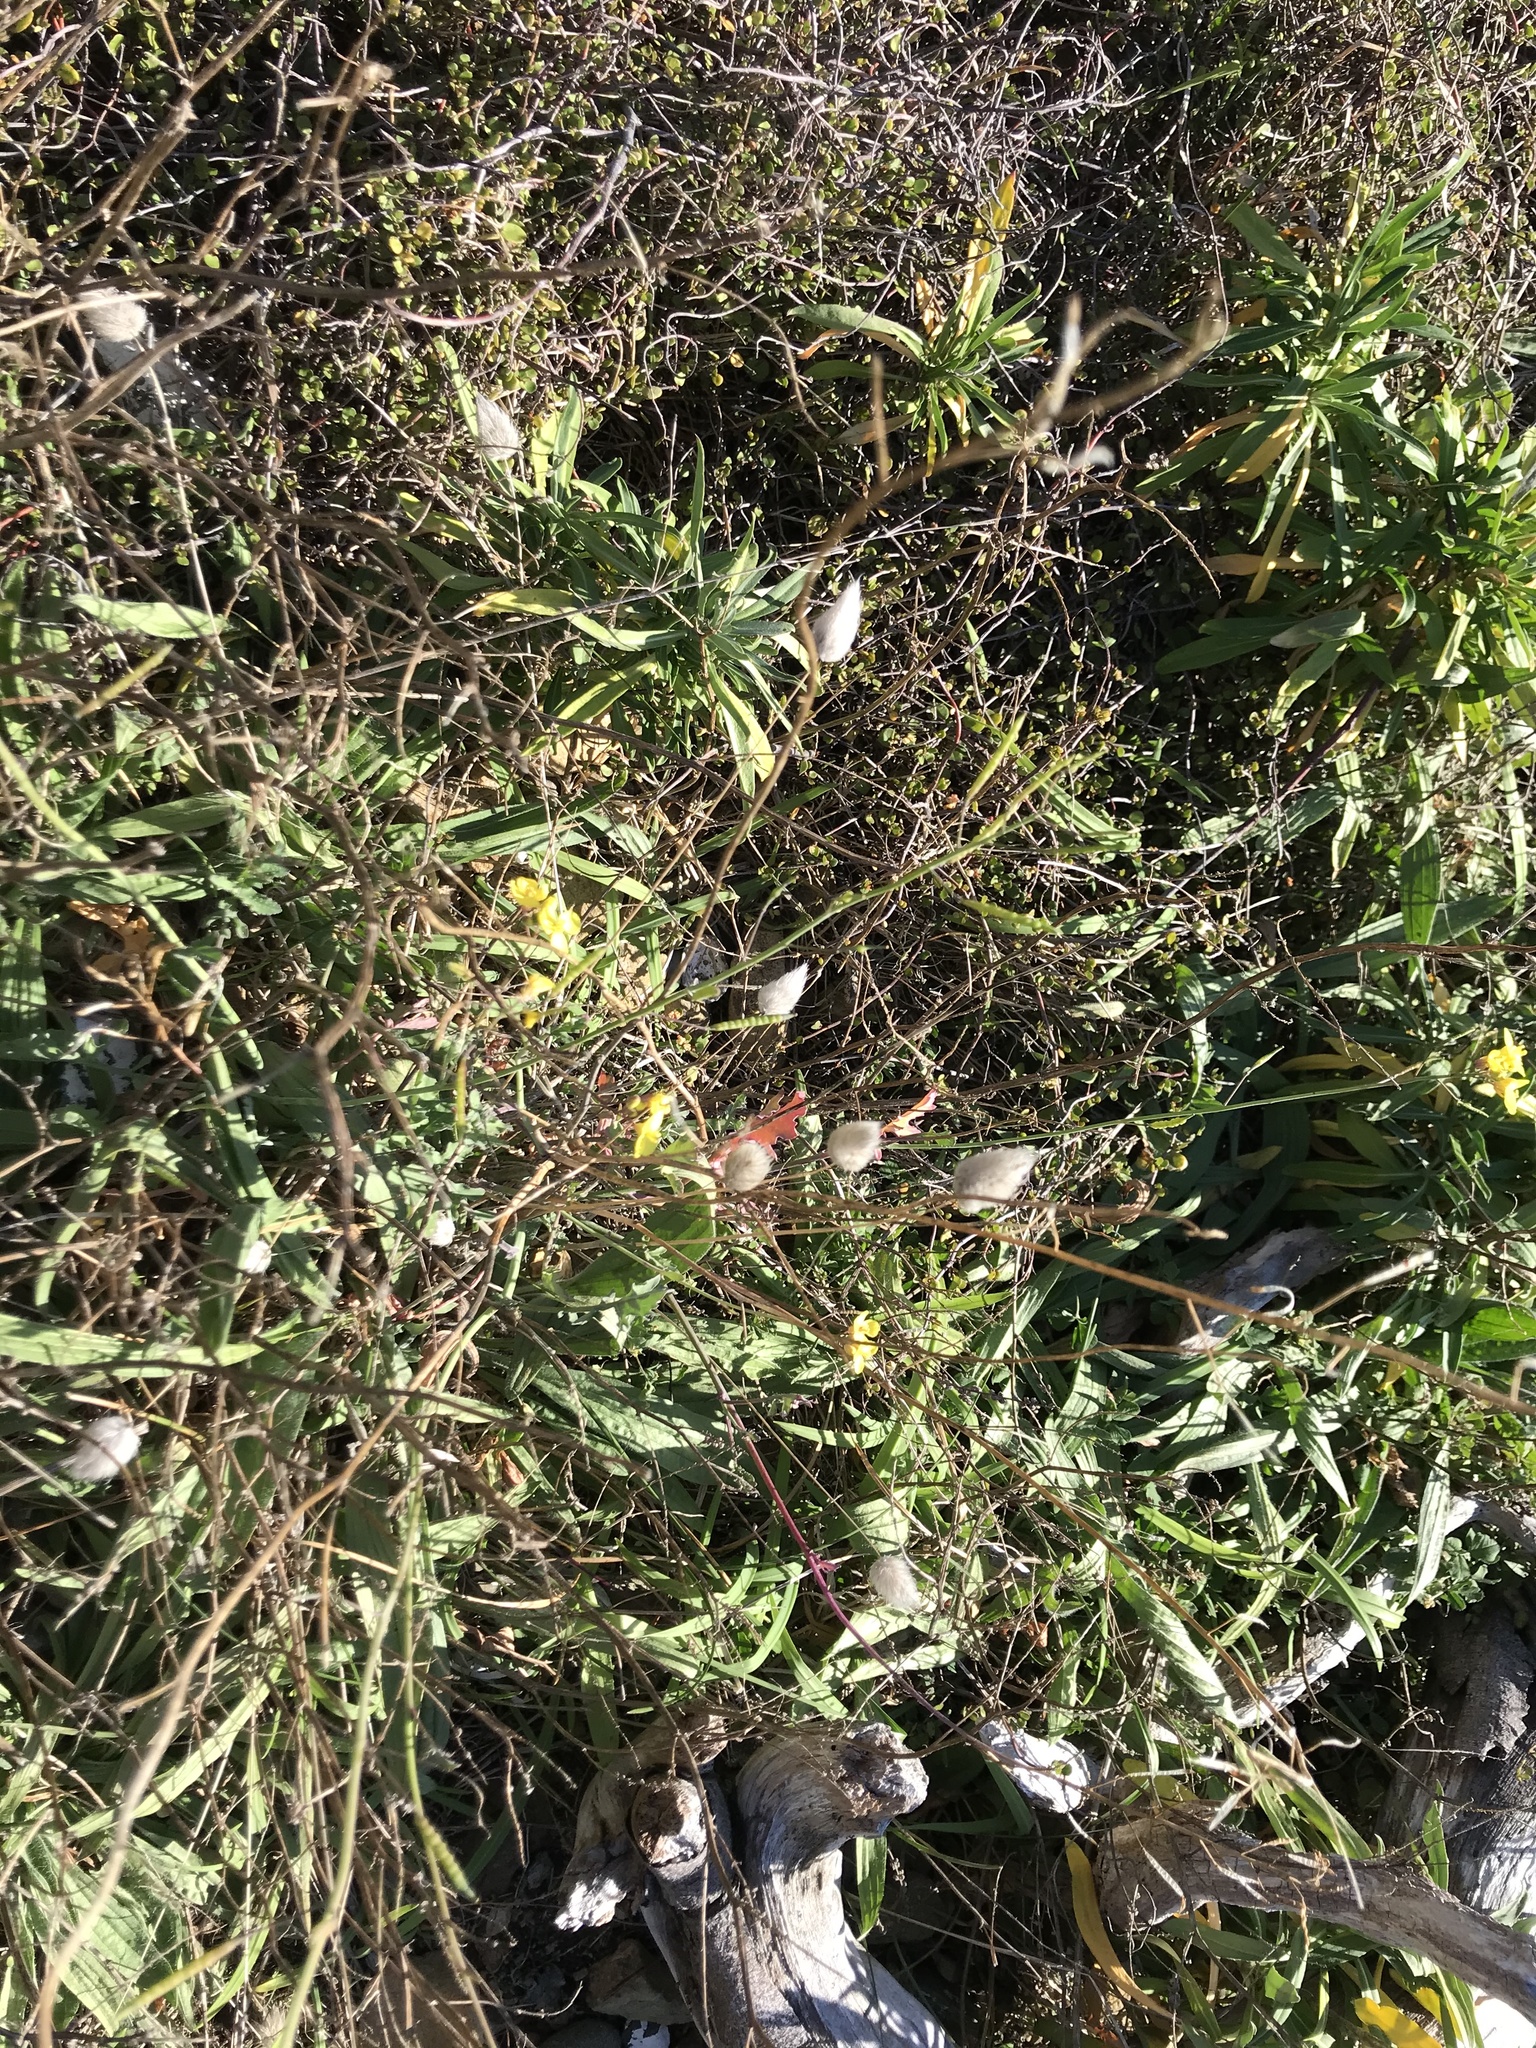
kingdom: Plantae
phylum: Tracheophyta
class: Liliopsida
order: Poales
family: Poaceae
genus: Lagurus
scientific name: Lagurus ovatus
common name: Hare's-tail
